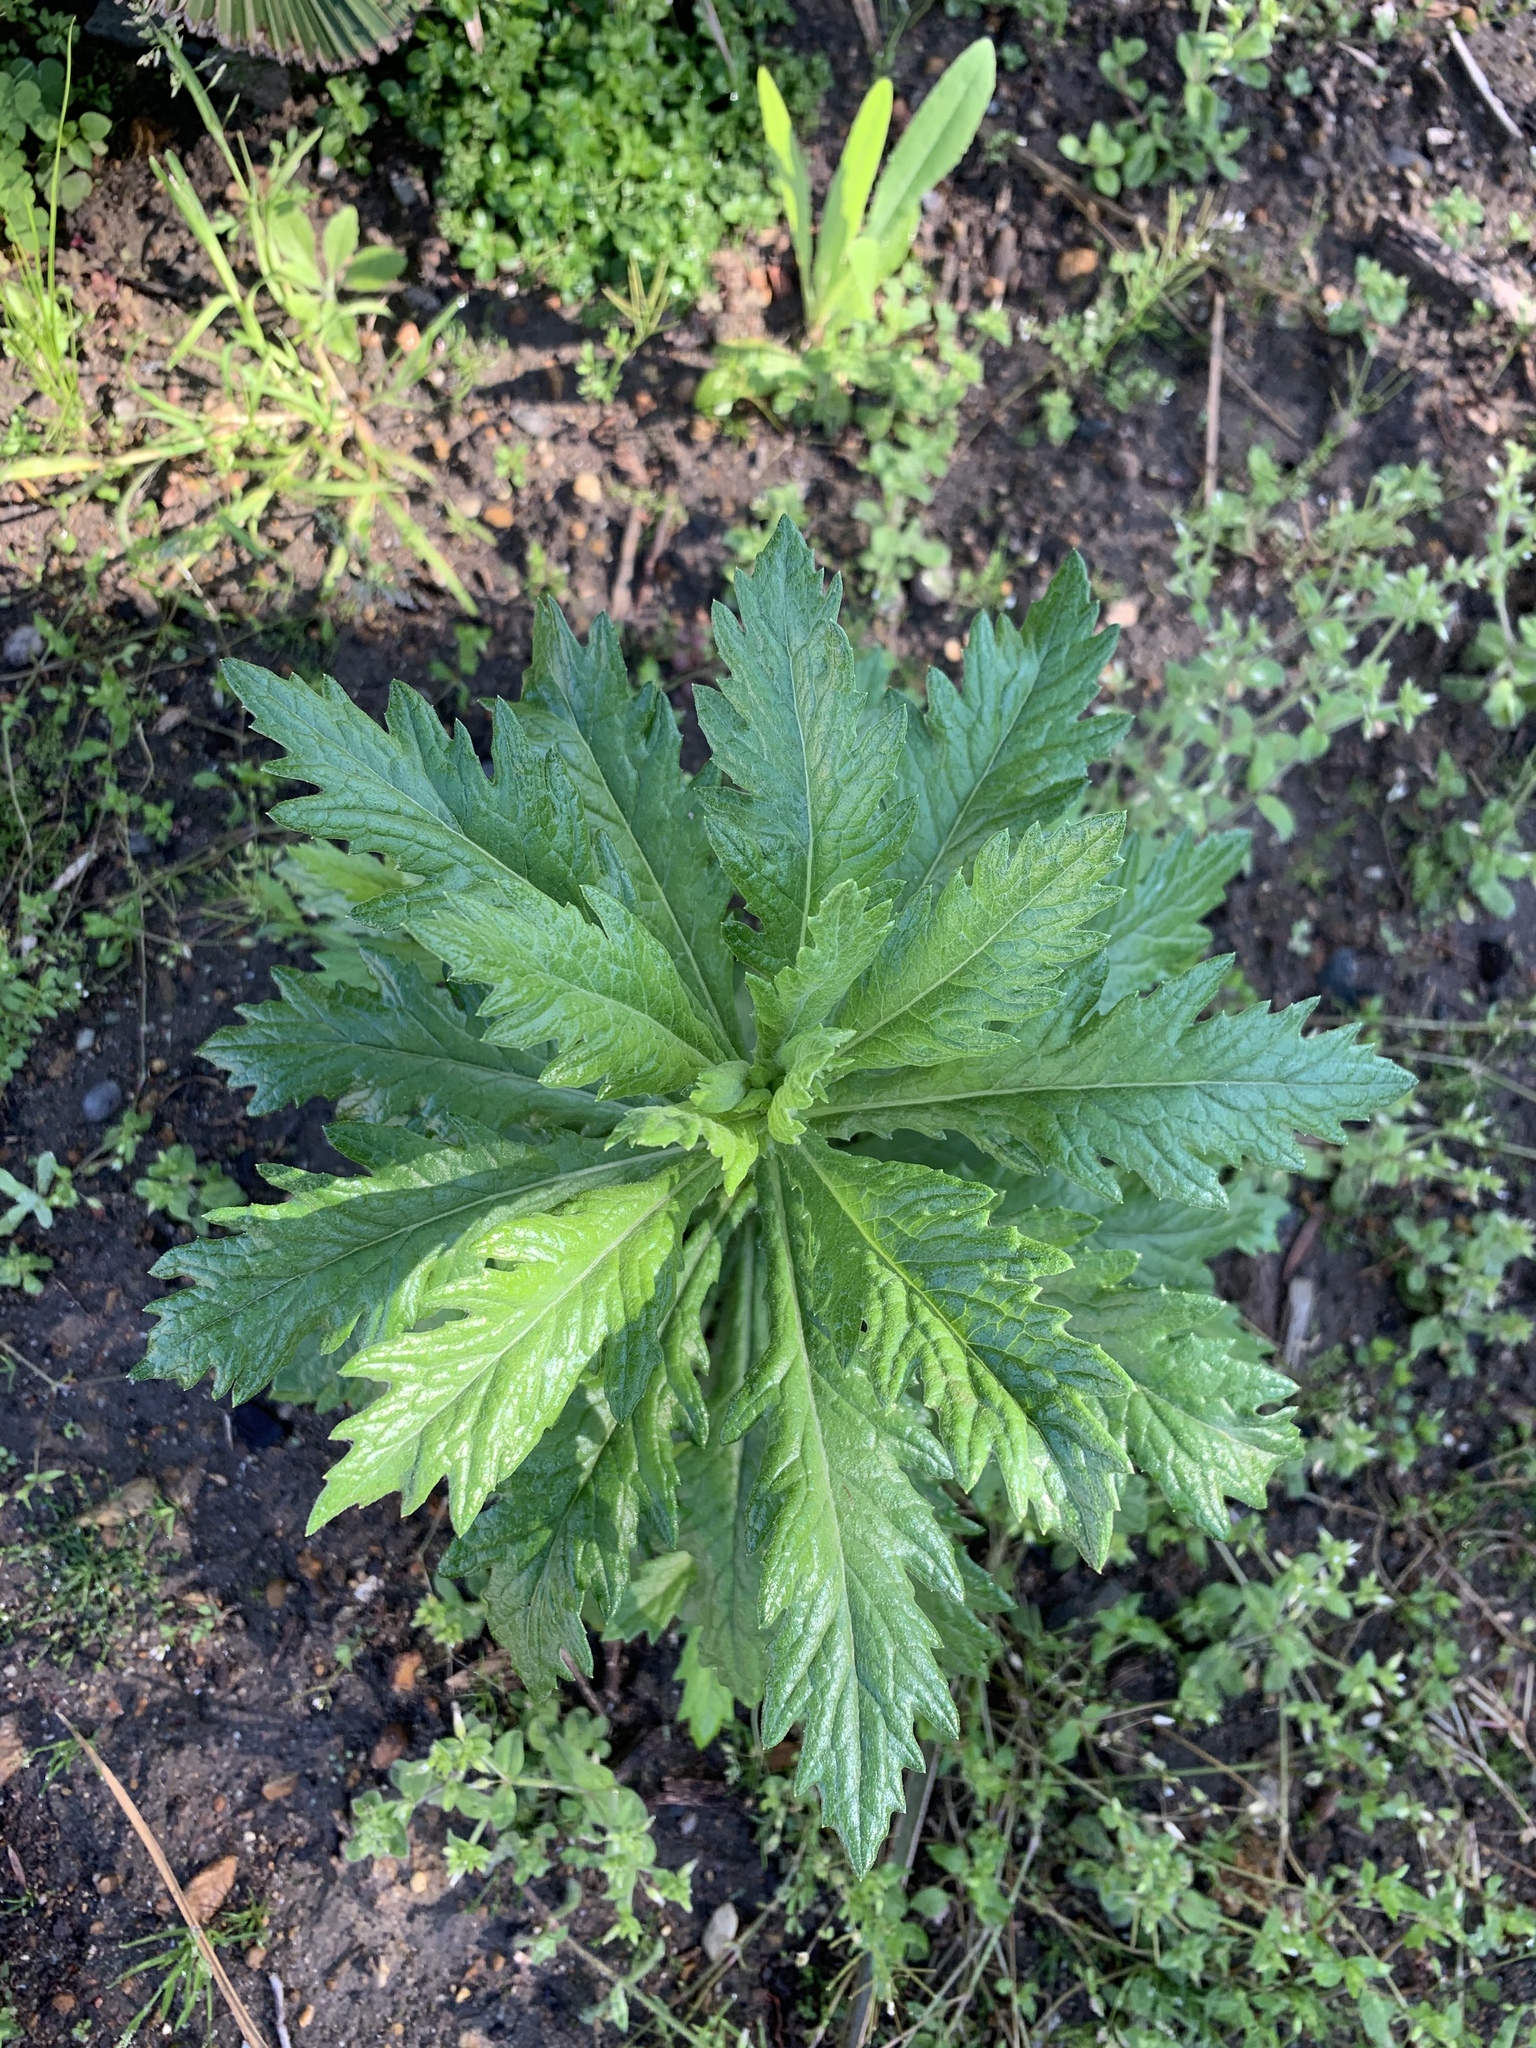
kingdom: Plantae
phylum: Tracheophyta
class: Magnoliopsida
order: Asterales
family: Asteraceae
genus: Senecio
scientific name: Senecio pterophorus
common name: Shoddy ragwort
